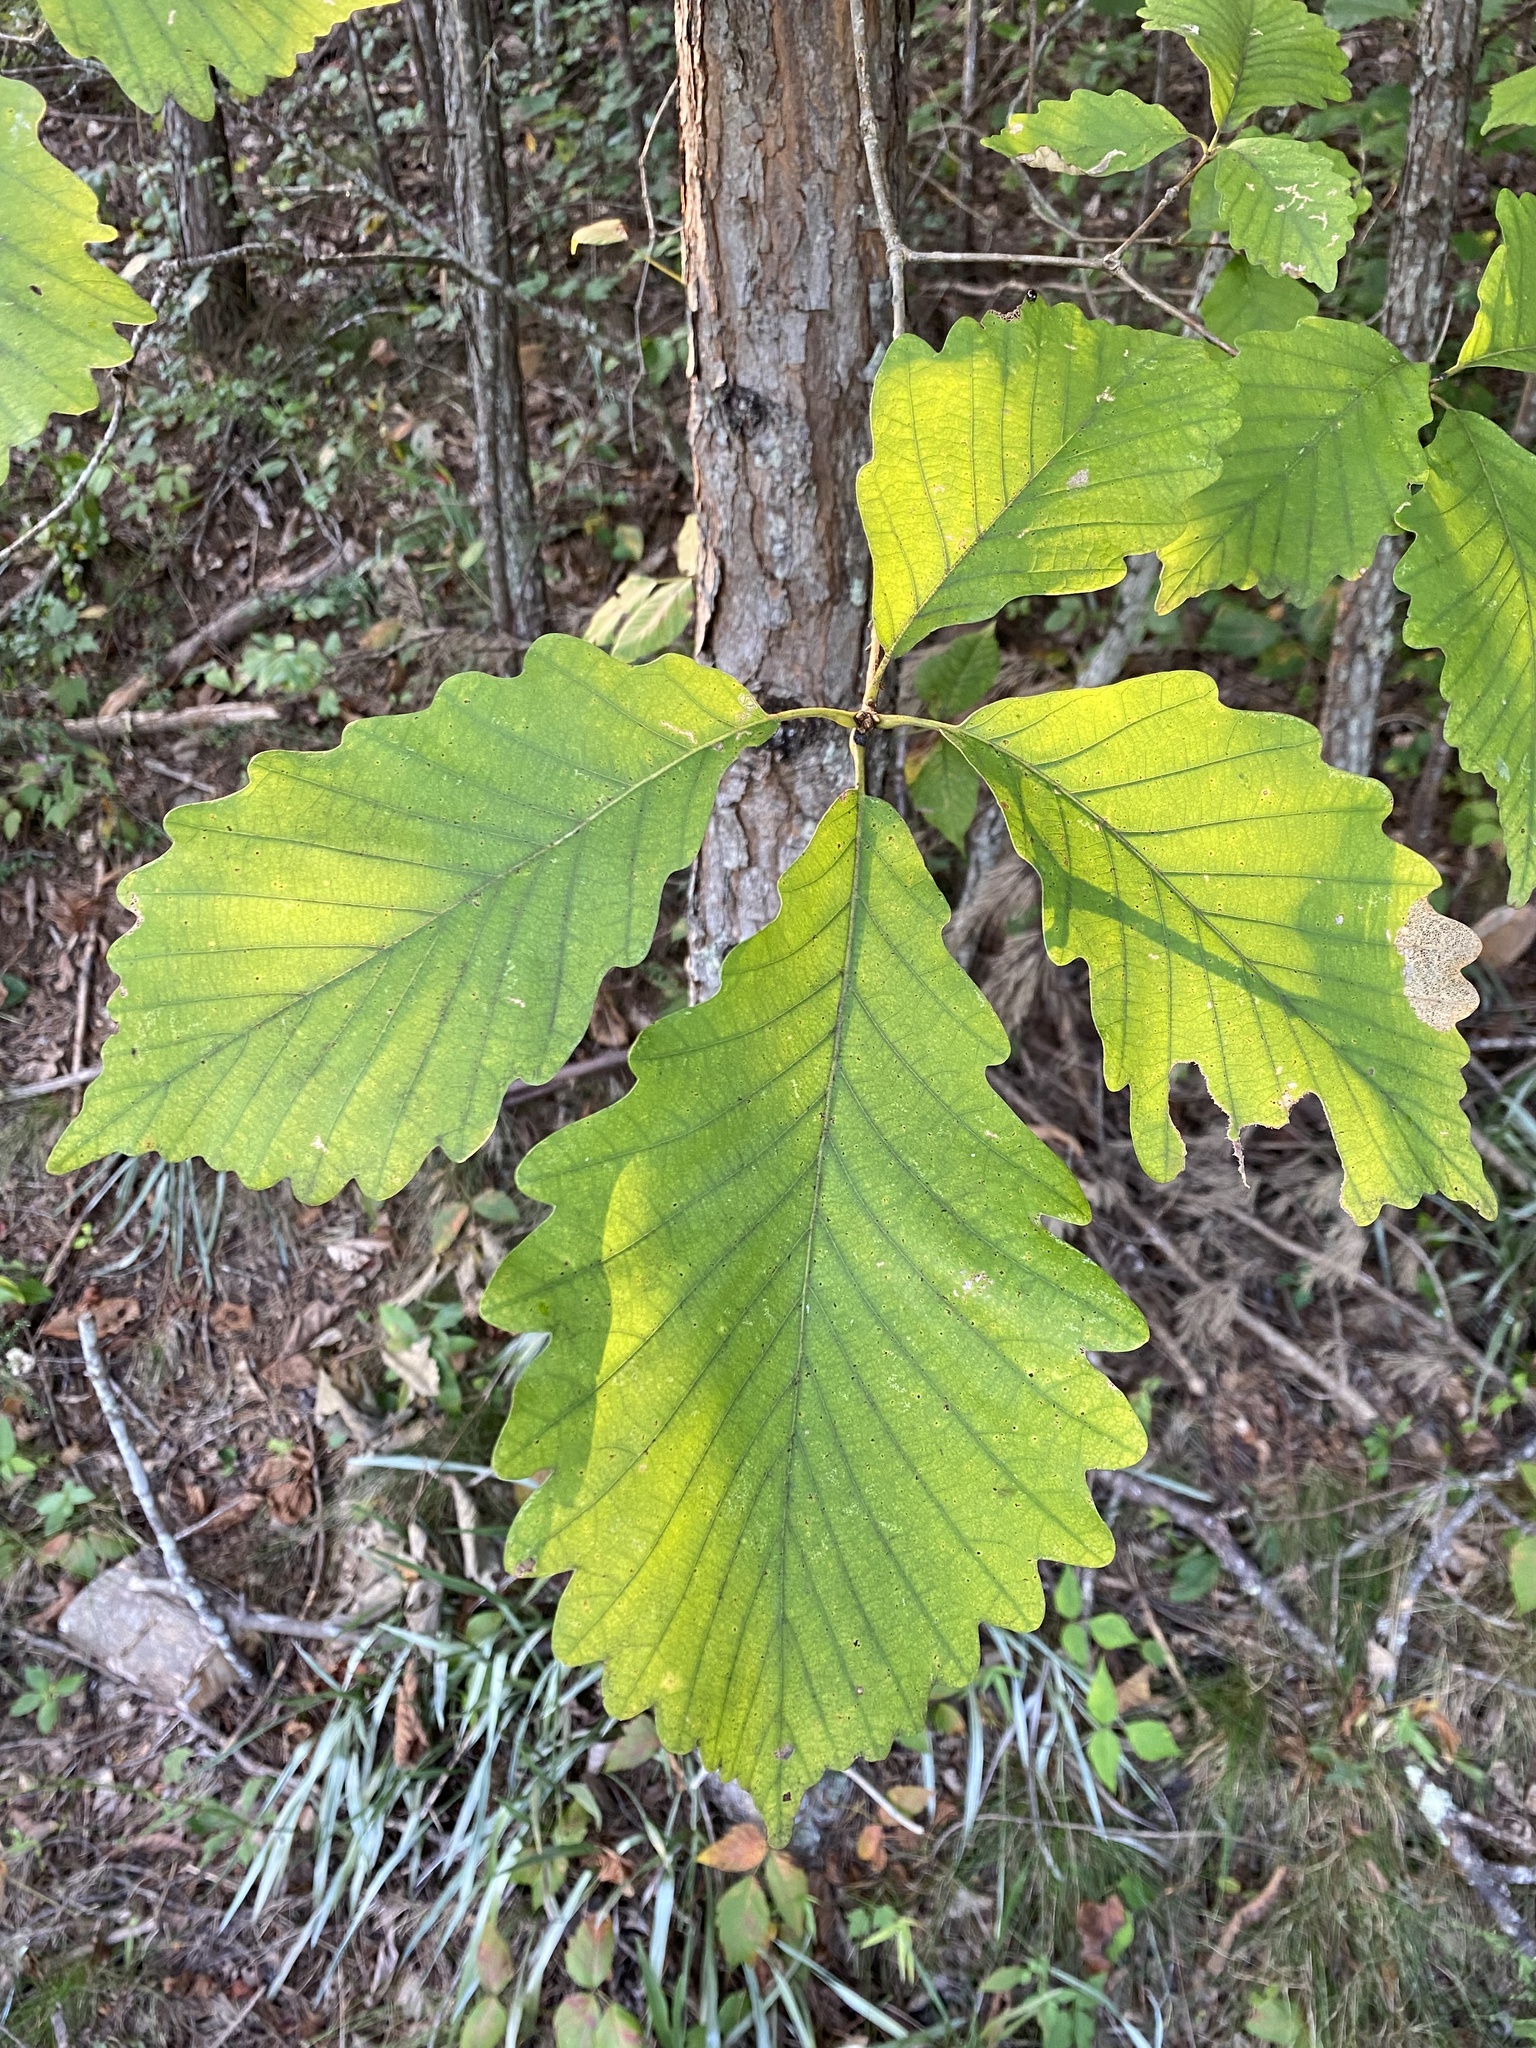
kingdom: Plantae
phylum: Tracheophyta
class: Magnoliopsida
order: Fagales
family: Fagaceae
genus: Quercus
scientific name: Quercus montana
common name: Chestnut oak
